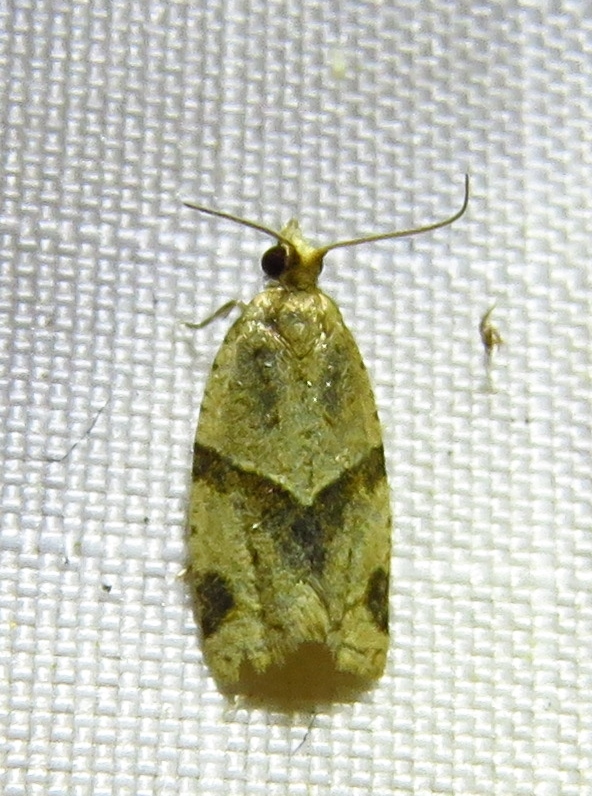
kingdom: Animalia
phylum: Arthropoda
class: Insecta
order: Lepidoptera
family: Tortricidae
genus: Clepsis
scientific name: Clepsis peritana
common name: Garden tortrix
